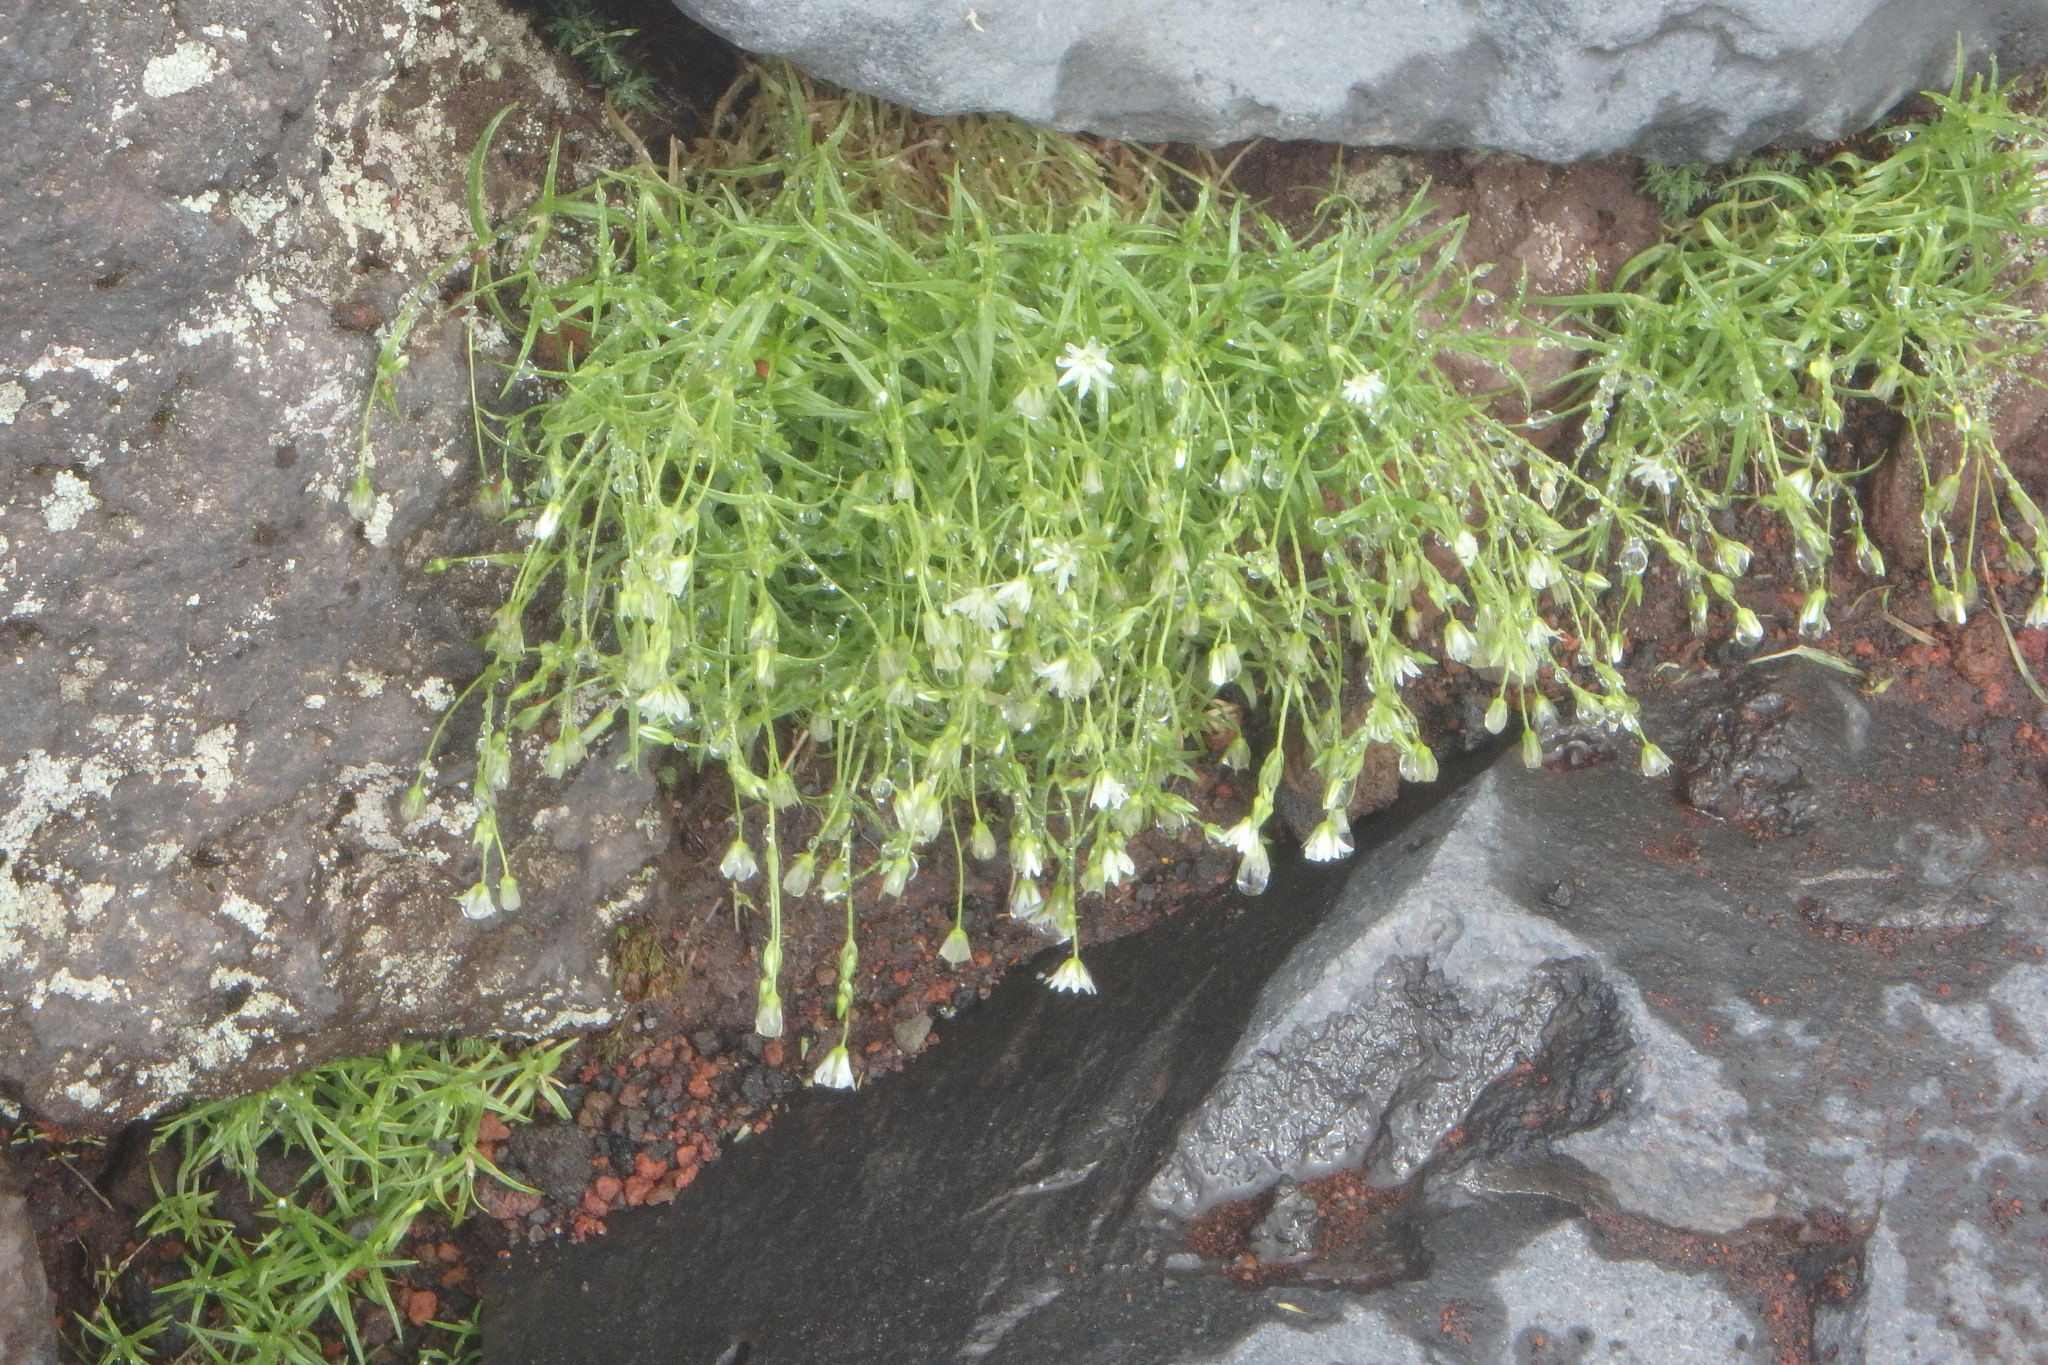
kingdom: Plantae
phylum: Tracheophyta
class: Magnoliopsida
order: Caryophyllales
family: Caryophyllaceae
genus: Stellaria
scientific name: Stellaria nipponica
